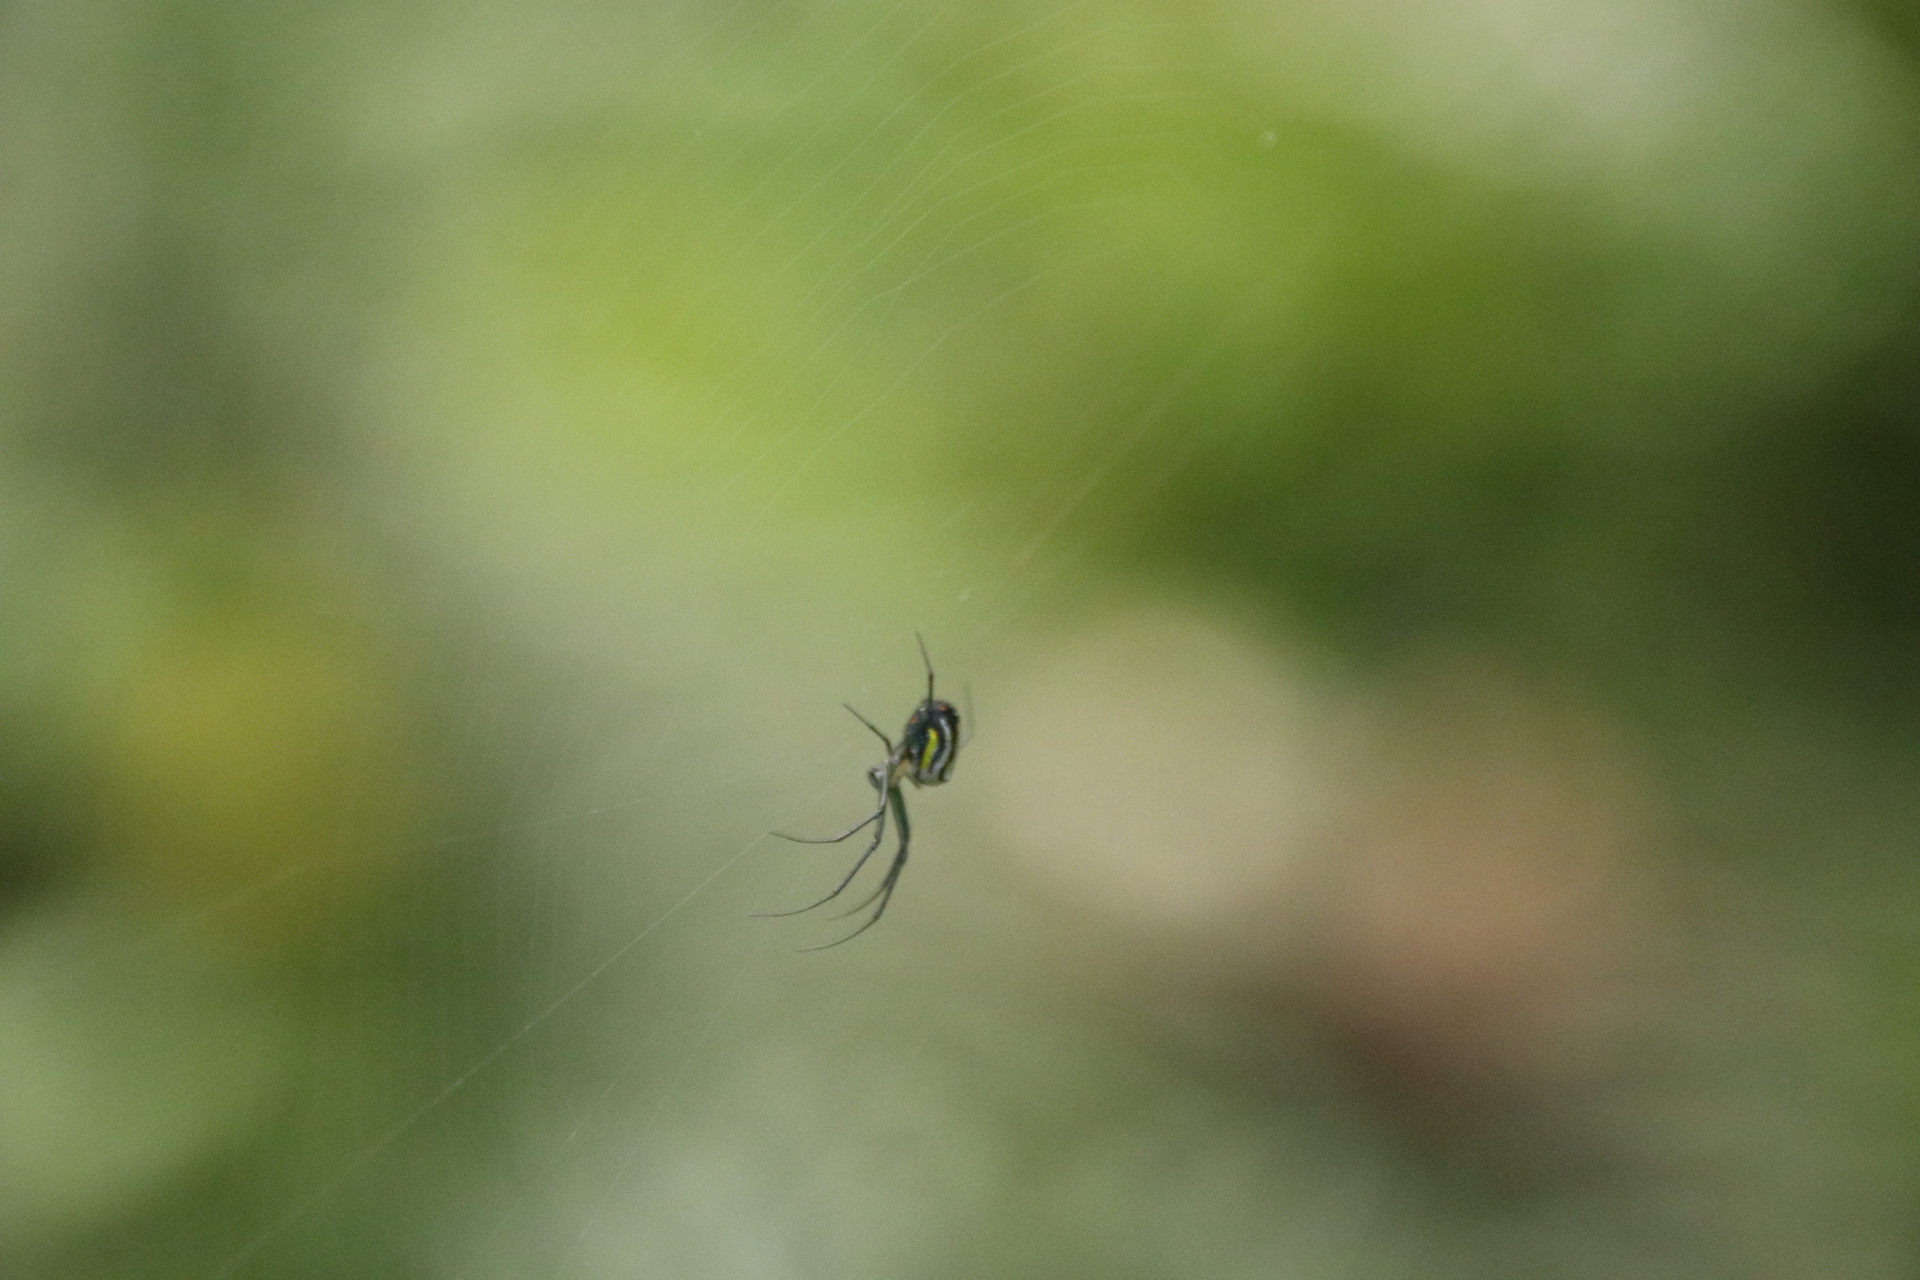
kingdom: Animalia
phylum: Arthropoda
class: Arachnida
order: Araneae
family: Tetragnathidae
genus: Leucauge
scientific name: Leucauge regnyi
